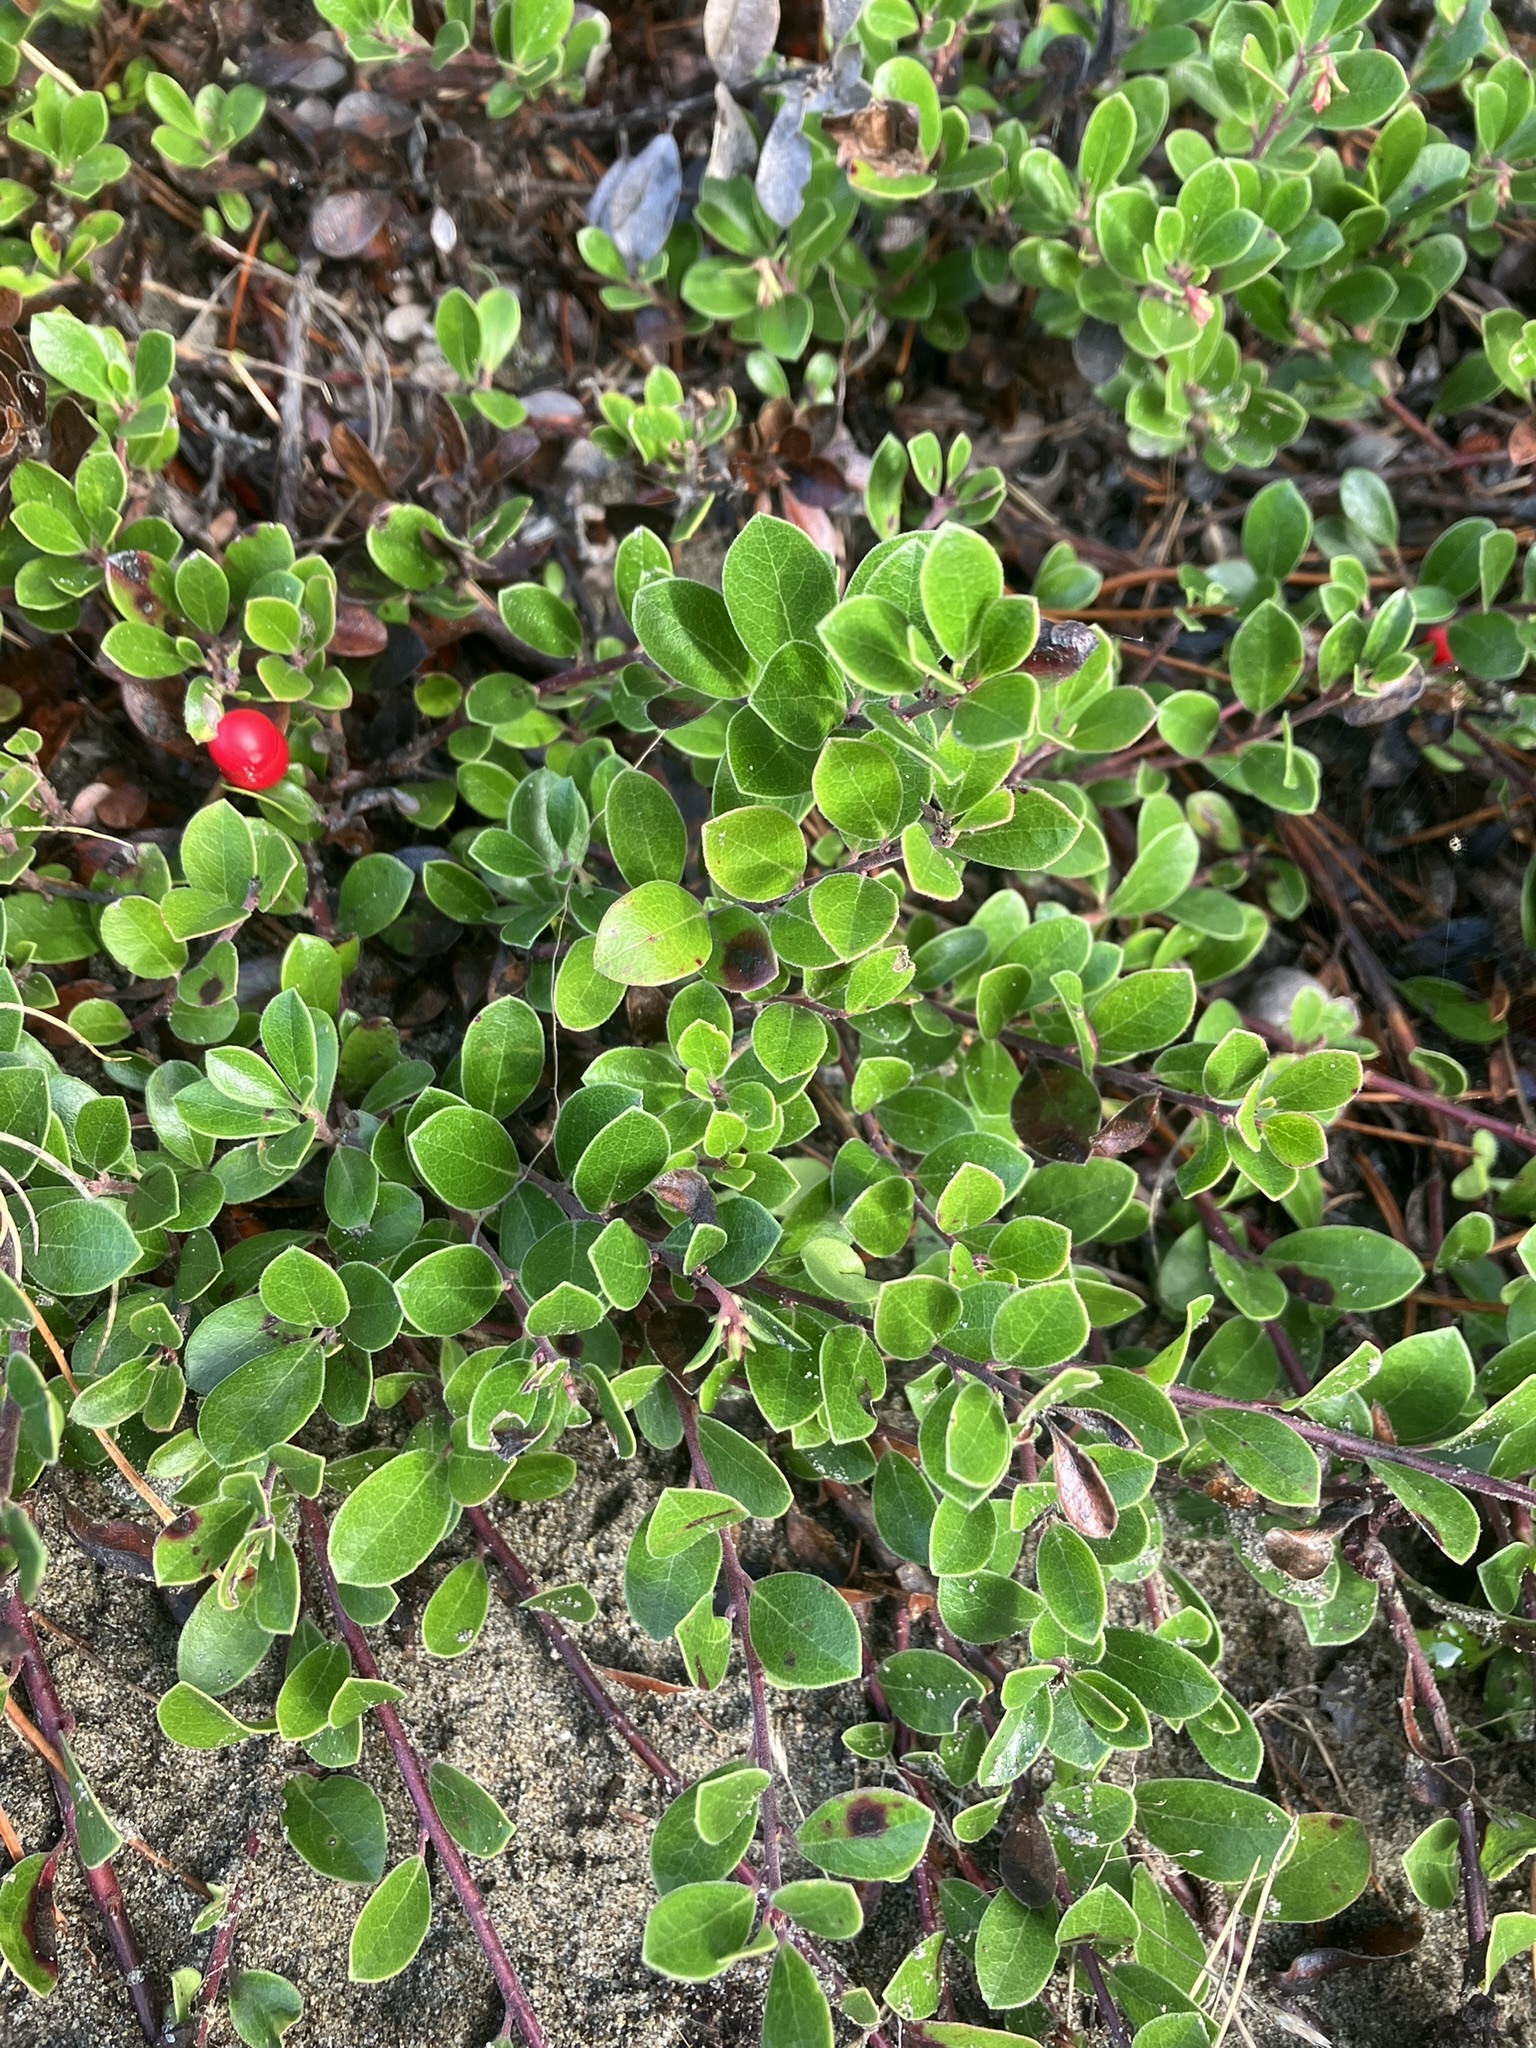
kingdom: Plantae
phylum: Tracheophyta
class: Magnoliopsida
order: Ericales
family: Ericaceae
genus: Arctostaphylos
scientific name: Arctostaphylos uva-ursi
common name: Bearberry
